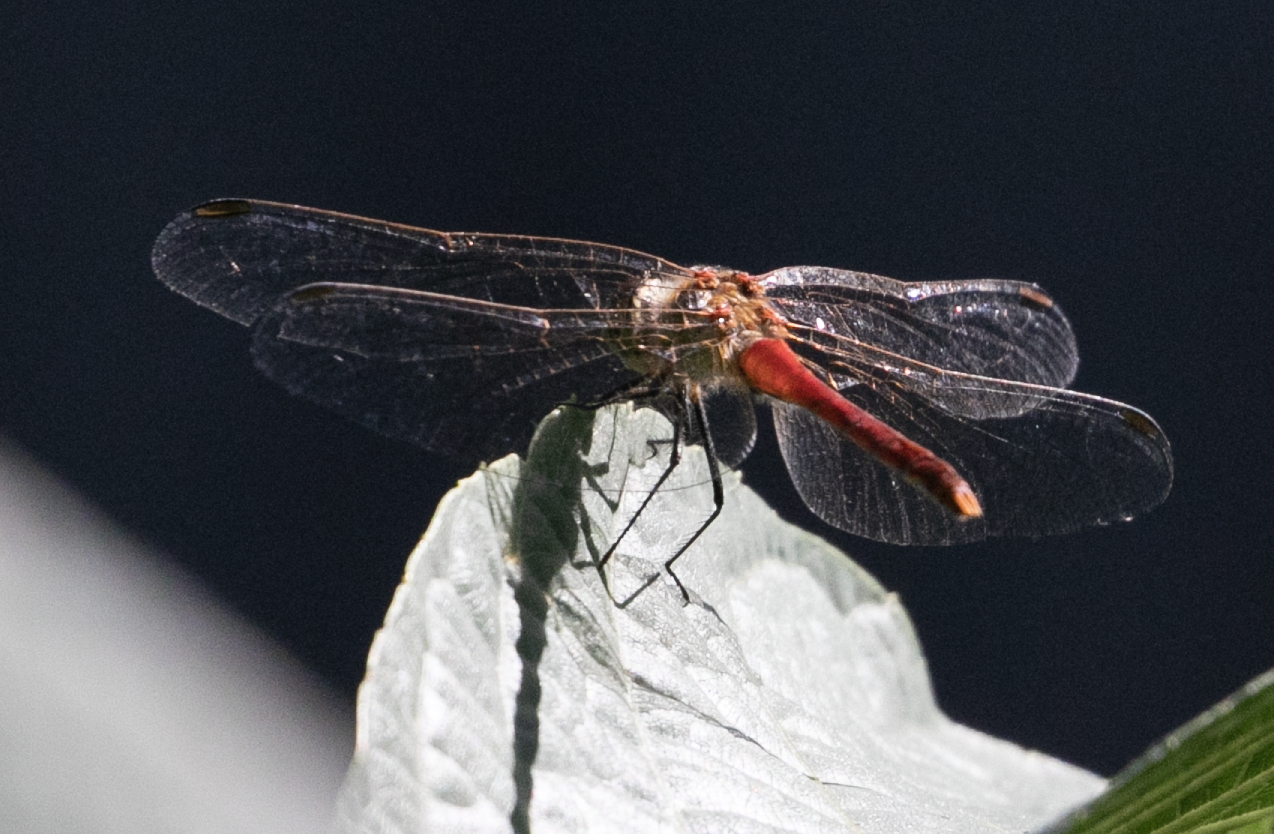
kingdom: Animalia
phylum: Arthropoda
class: Insecta
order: Odonata
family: Libellulidae
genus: Sympetrum
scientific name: Sympetrum sanguineum
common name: Ruddy darter
